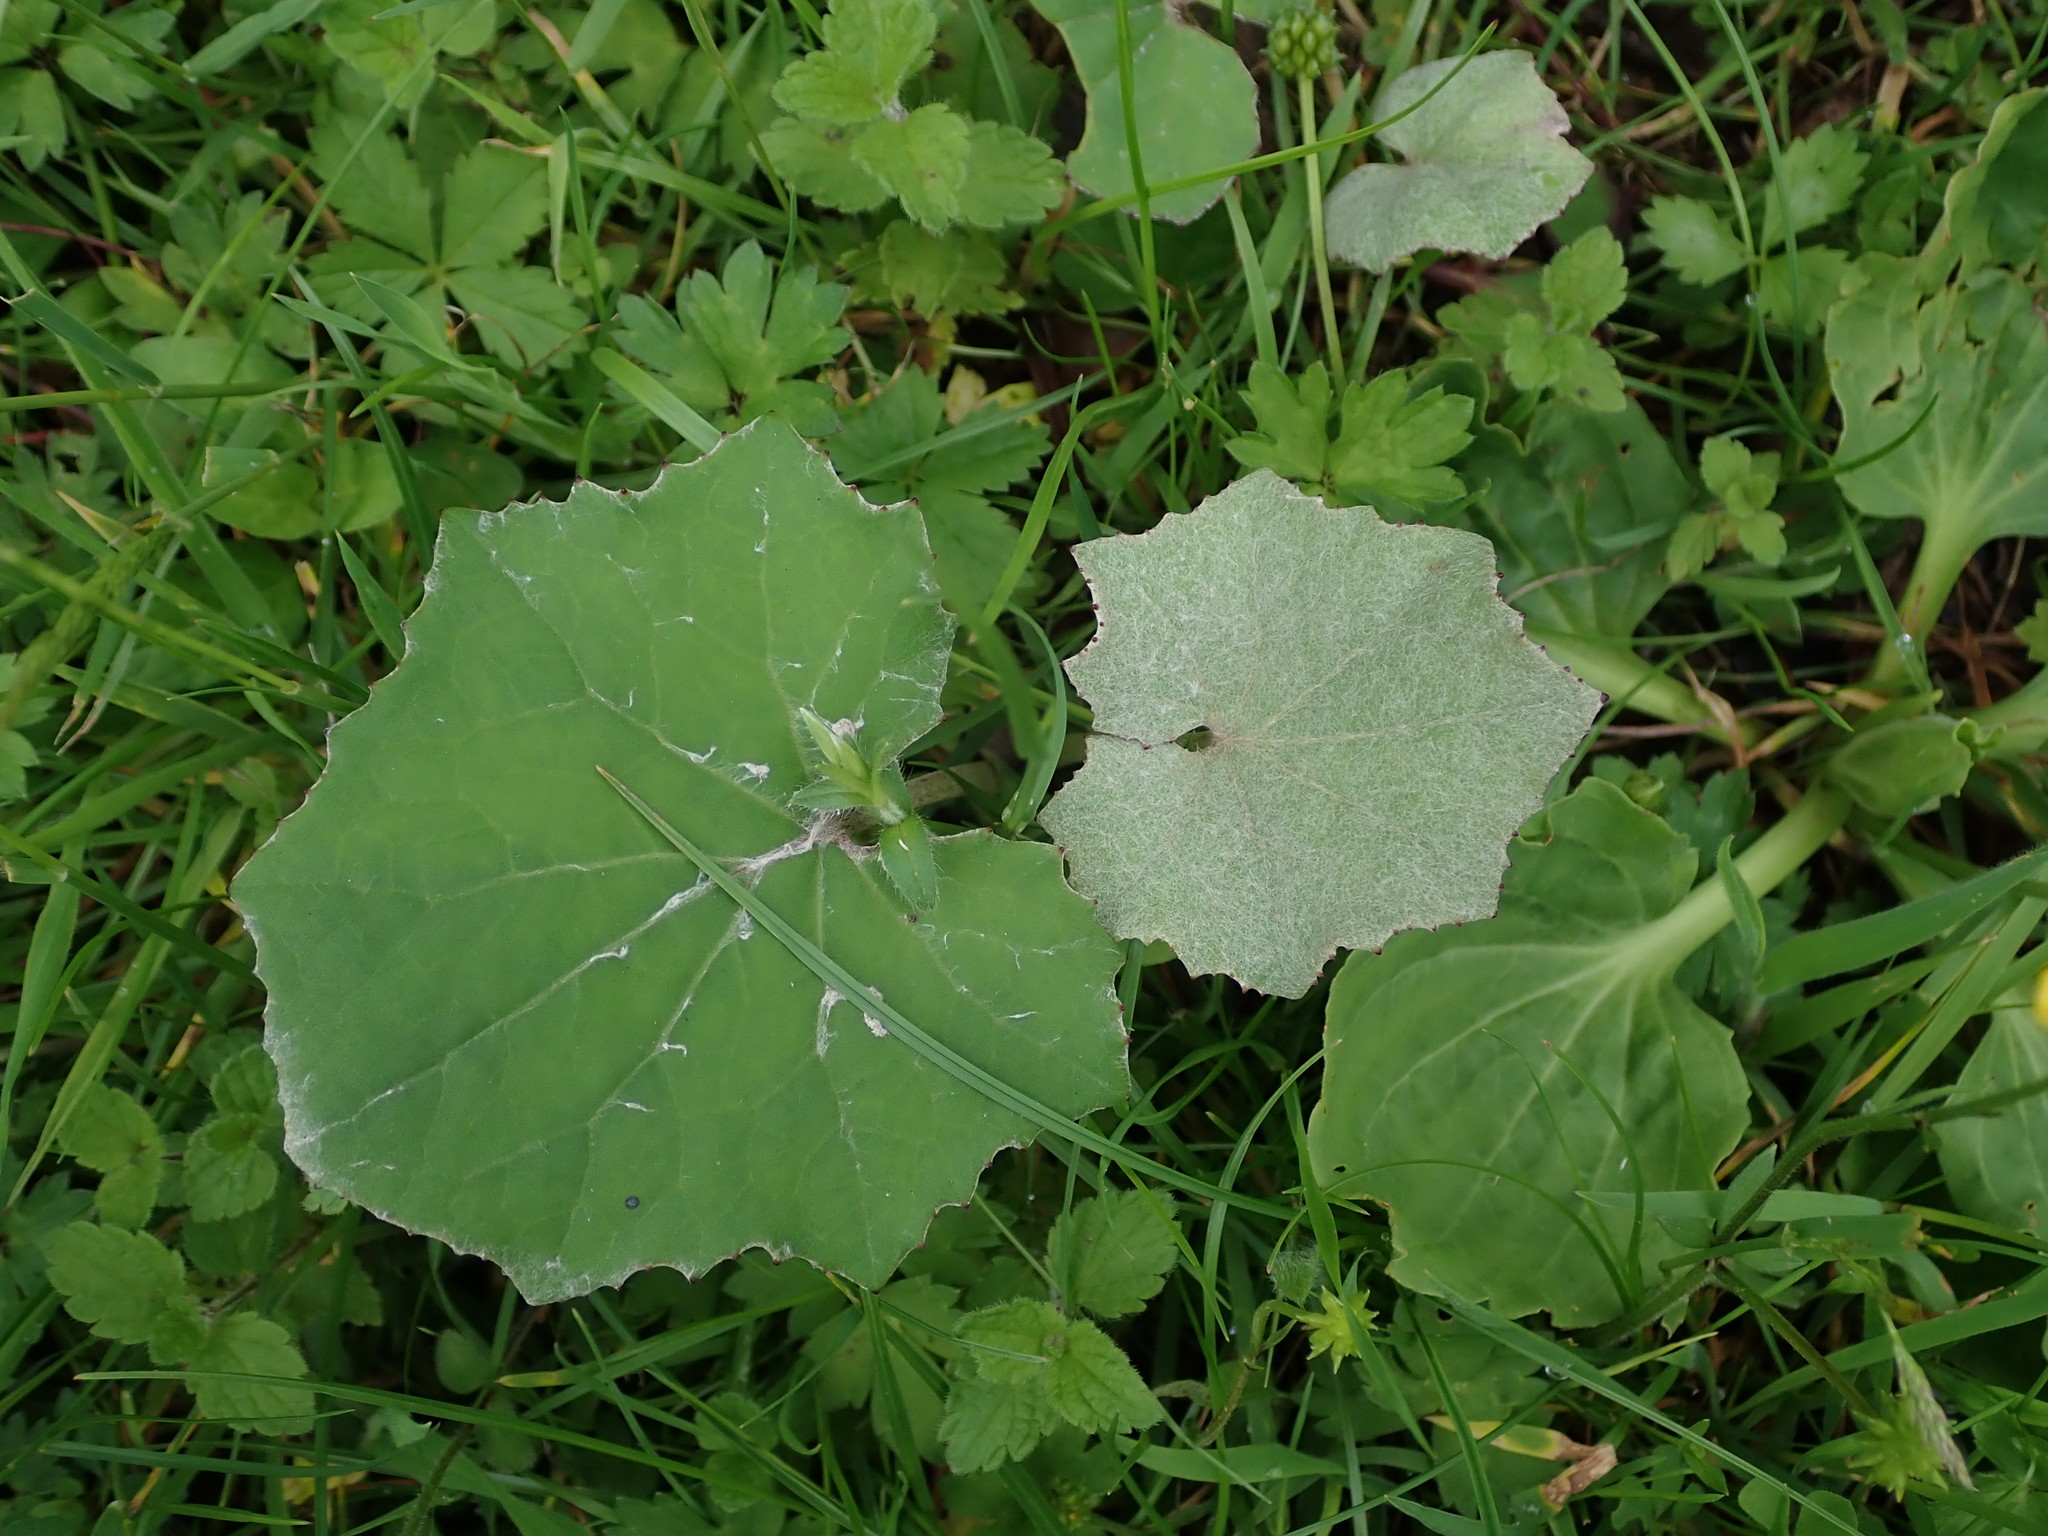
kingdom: Plantae
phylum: Tracheophyta
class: Magnoliopsida
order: Asterales
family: Asteraceae
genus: Tussilago
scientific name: Tussilago farfara
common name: Coltsfoot
